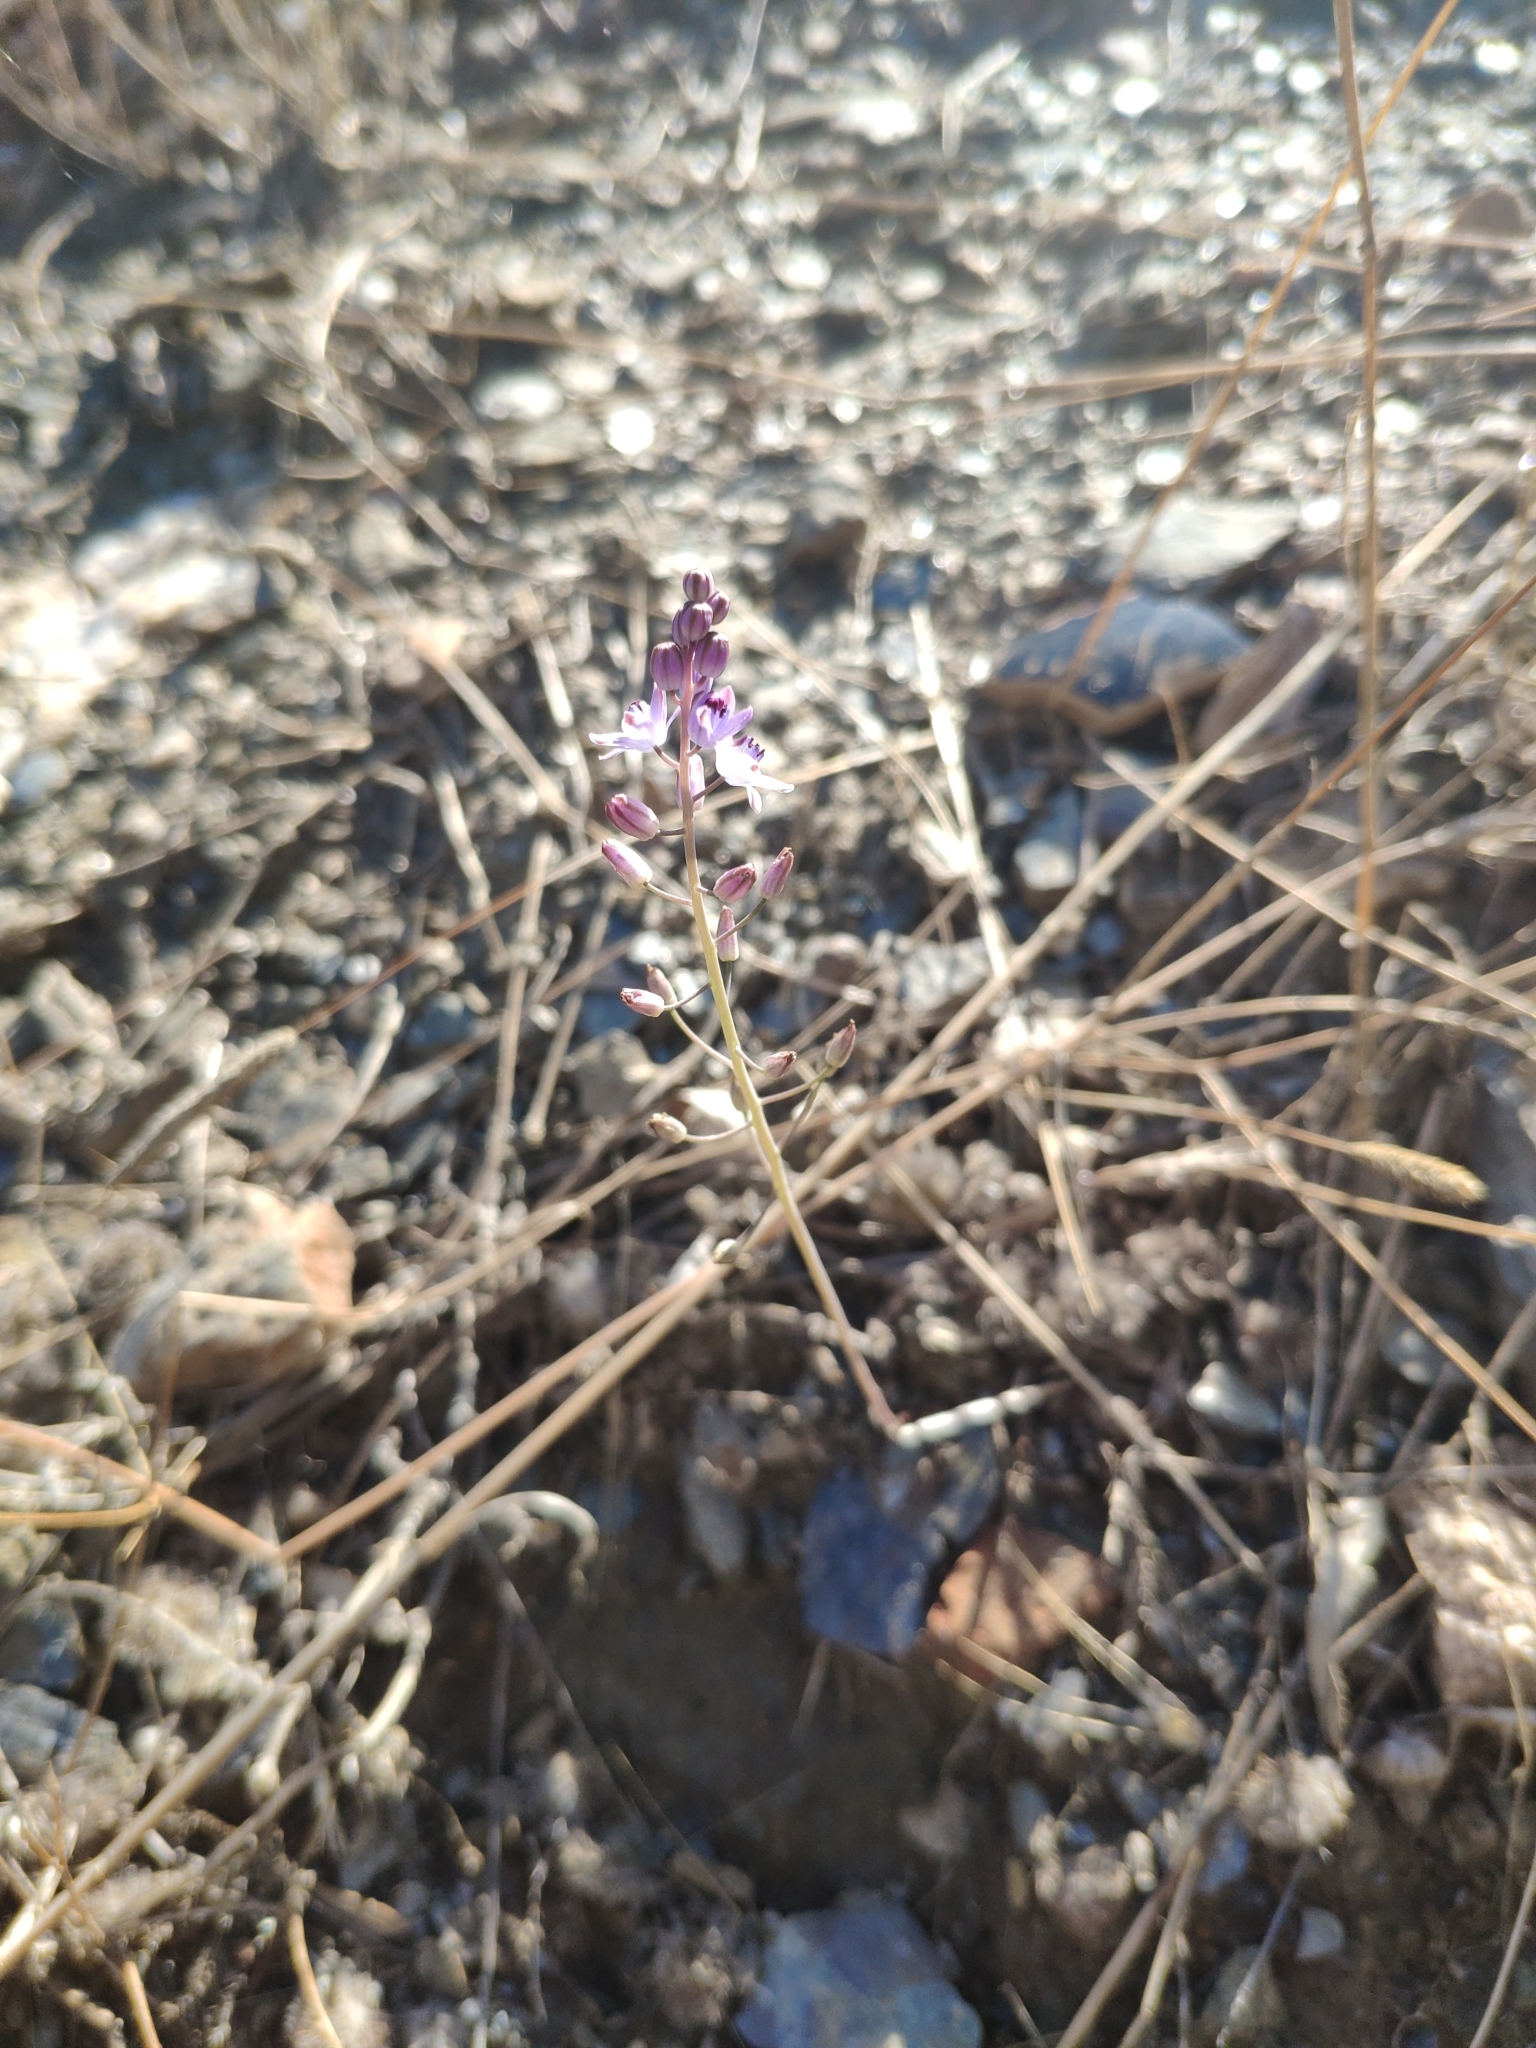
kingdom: Plantae
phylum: Tracheophyta
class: Liliopsida
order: Asparagales
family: Asparagaceae
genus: Prospero
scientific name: Prospero autumnale
